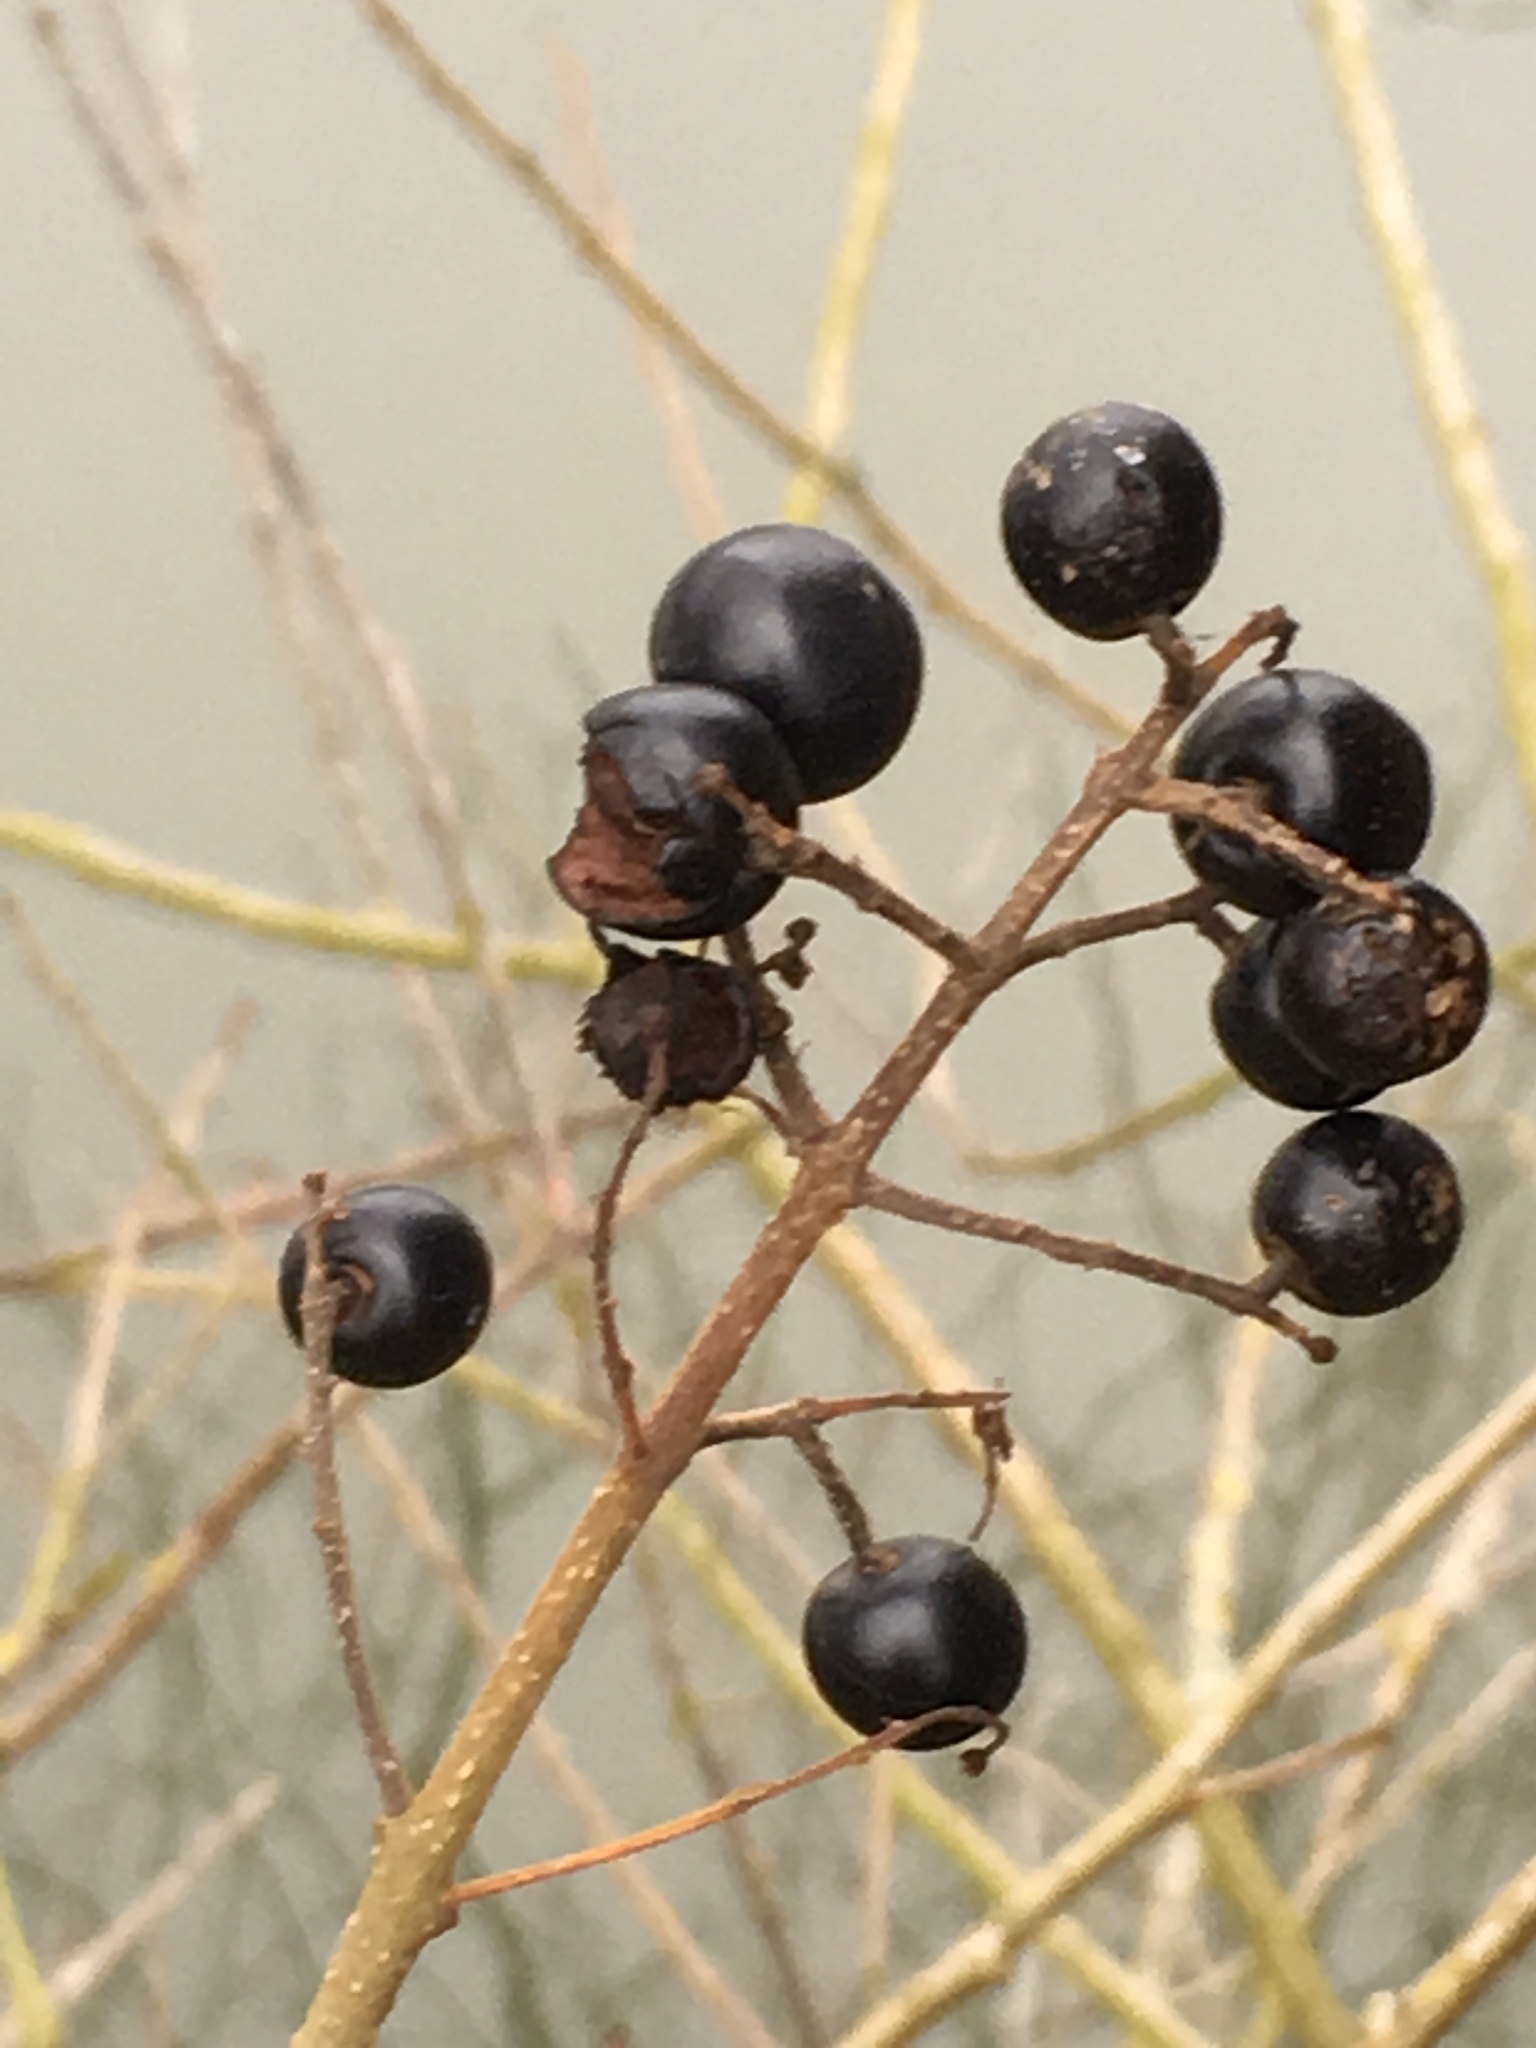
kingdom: Plantae
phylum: Tracheophyta
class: Magnoliopsida
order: Lamiales
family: Oleaceae
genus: Ligustrum
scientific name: Ligustrum vulgare
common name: Wild privet
